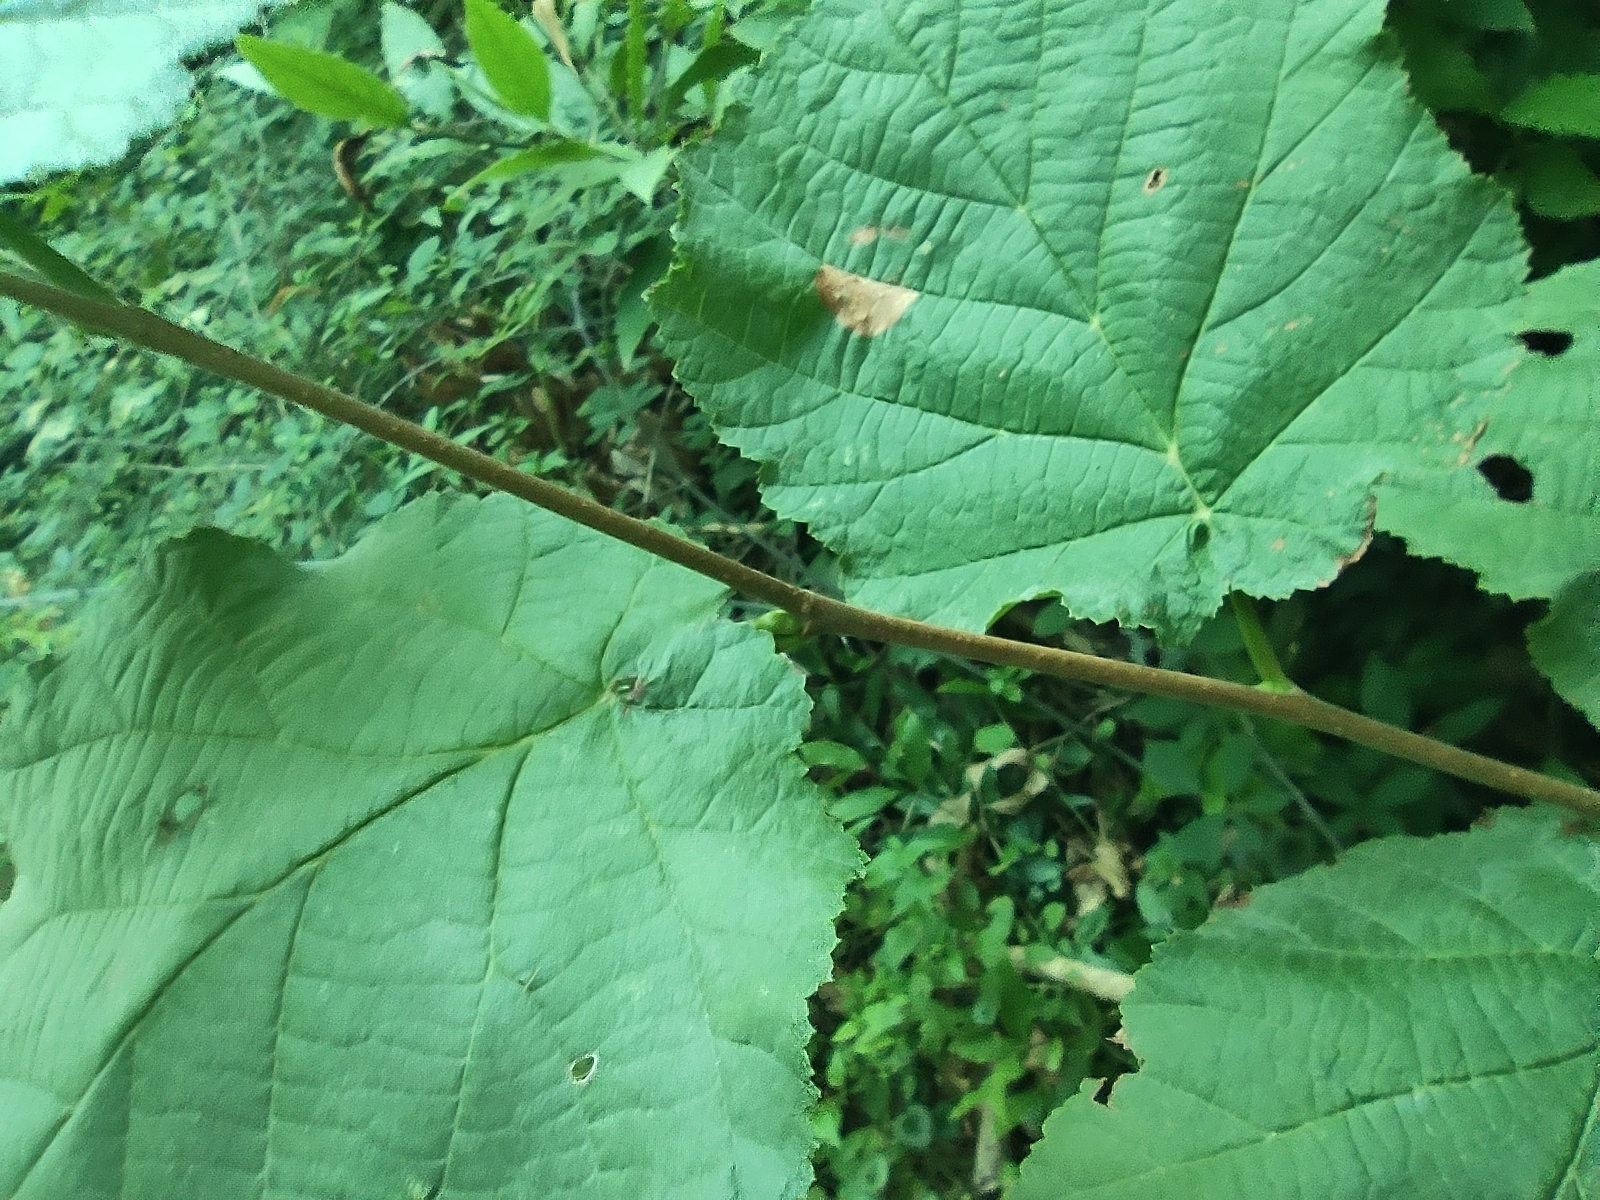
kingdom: Plantae
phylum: Tracheophyta
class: Magnoliopsida
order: Fagales
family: Betulaceae
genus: Corylus
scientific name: Corylus avellana
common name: European hazel
